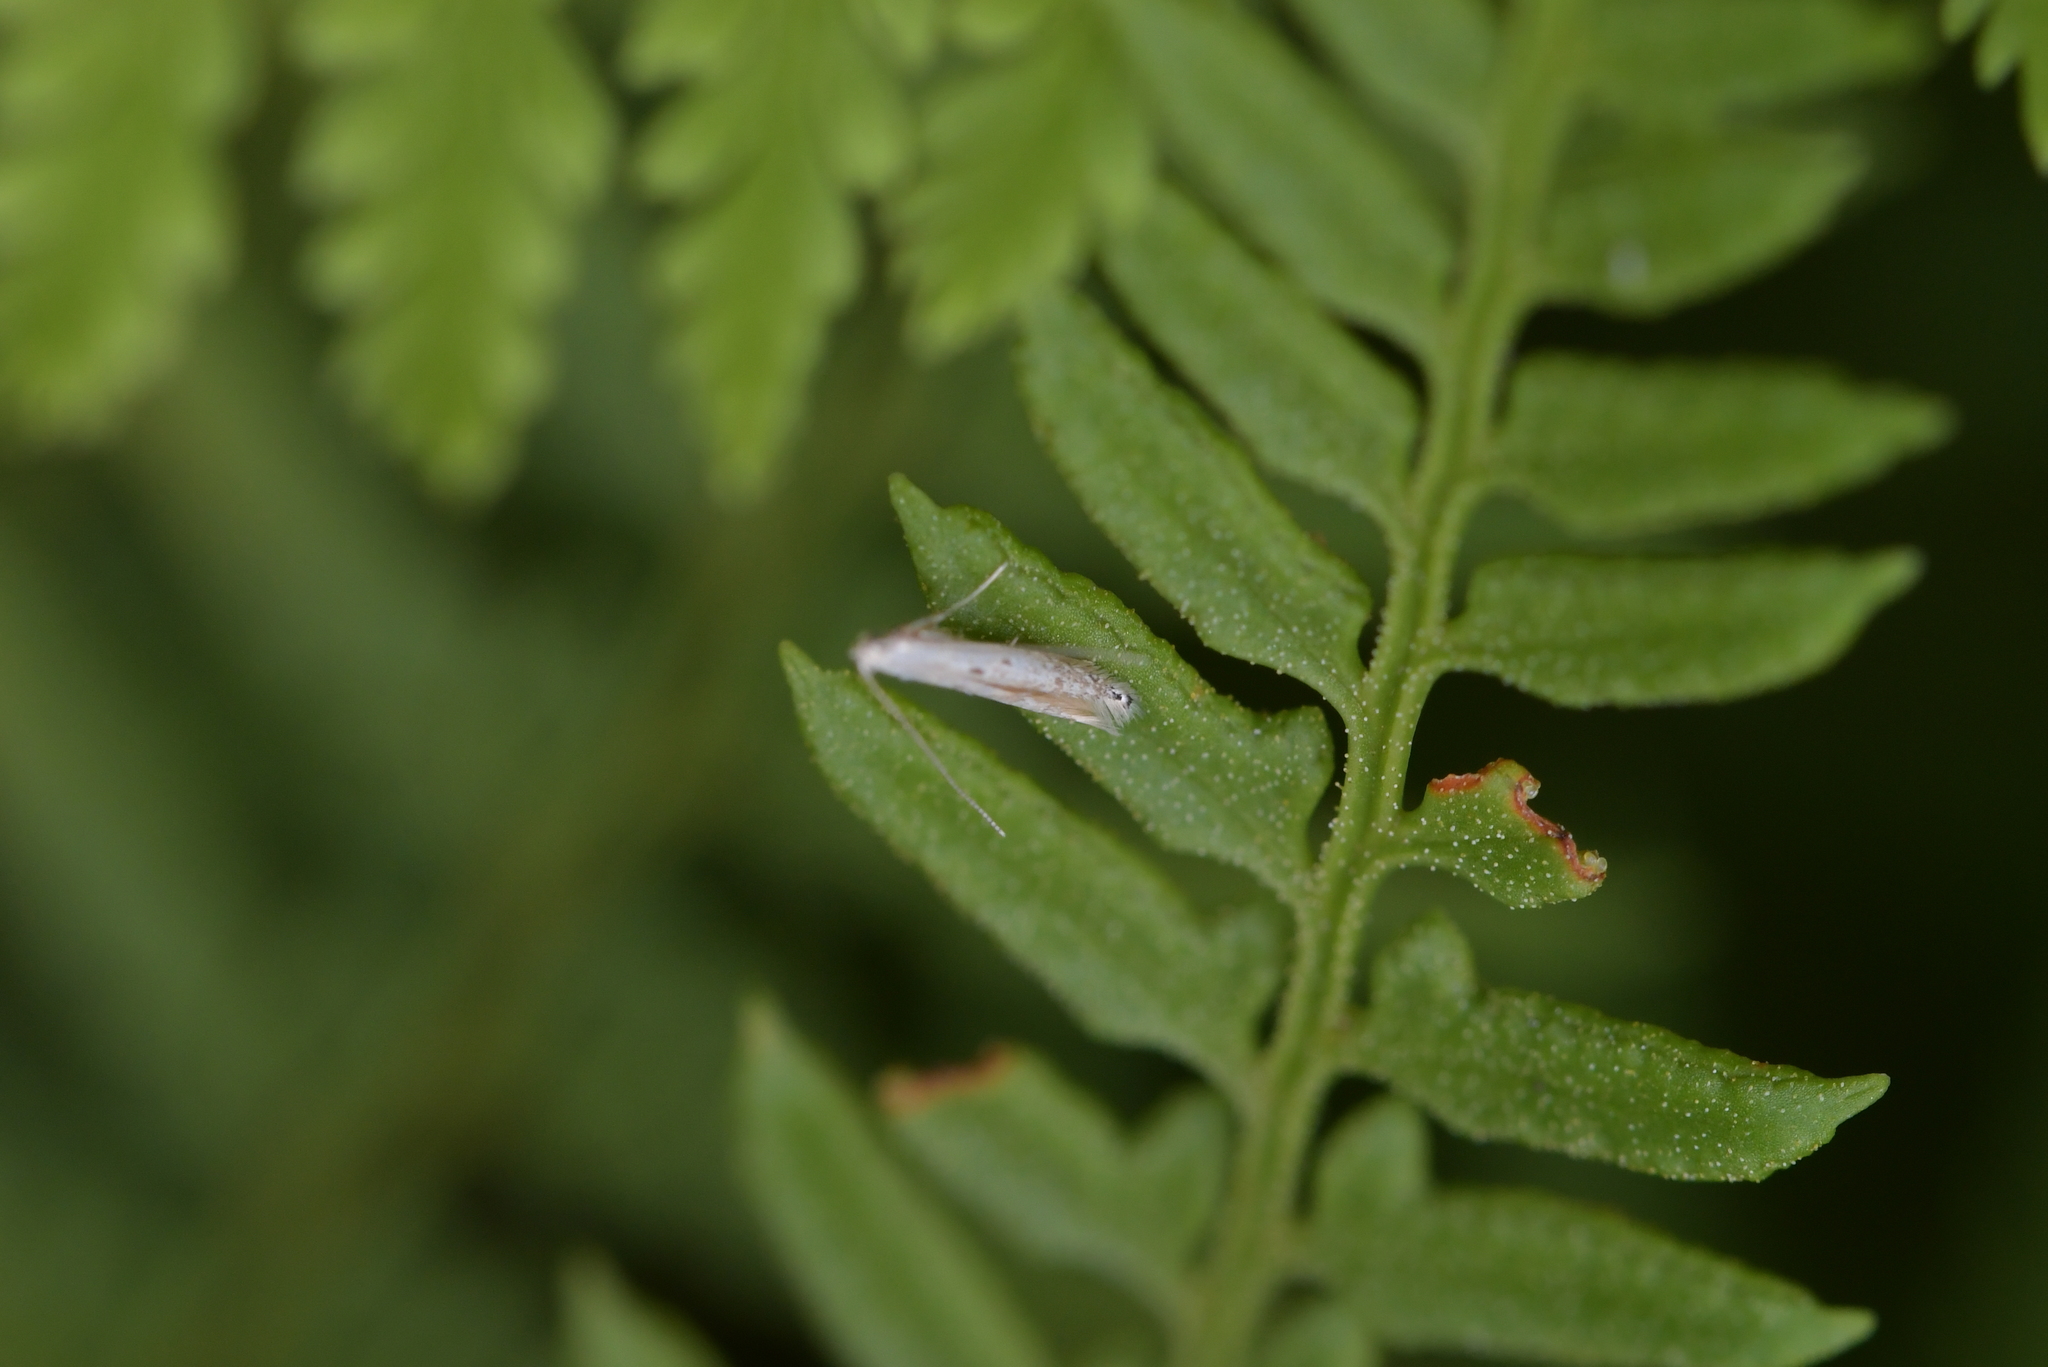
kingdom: Animalia
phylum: Arthropoda
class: Insecta
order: Lepidoptera
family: Batrachedridae
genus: Batrachedra
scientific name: Batrachedra psithyra
